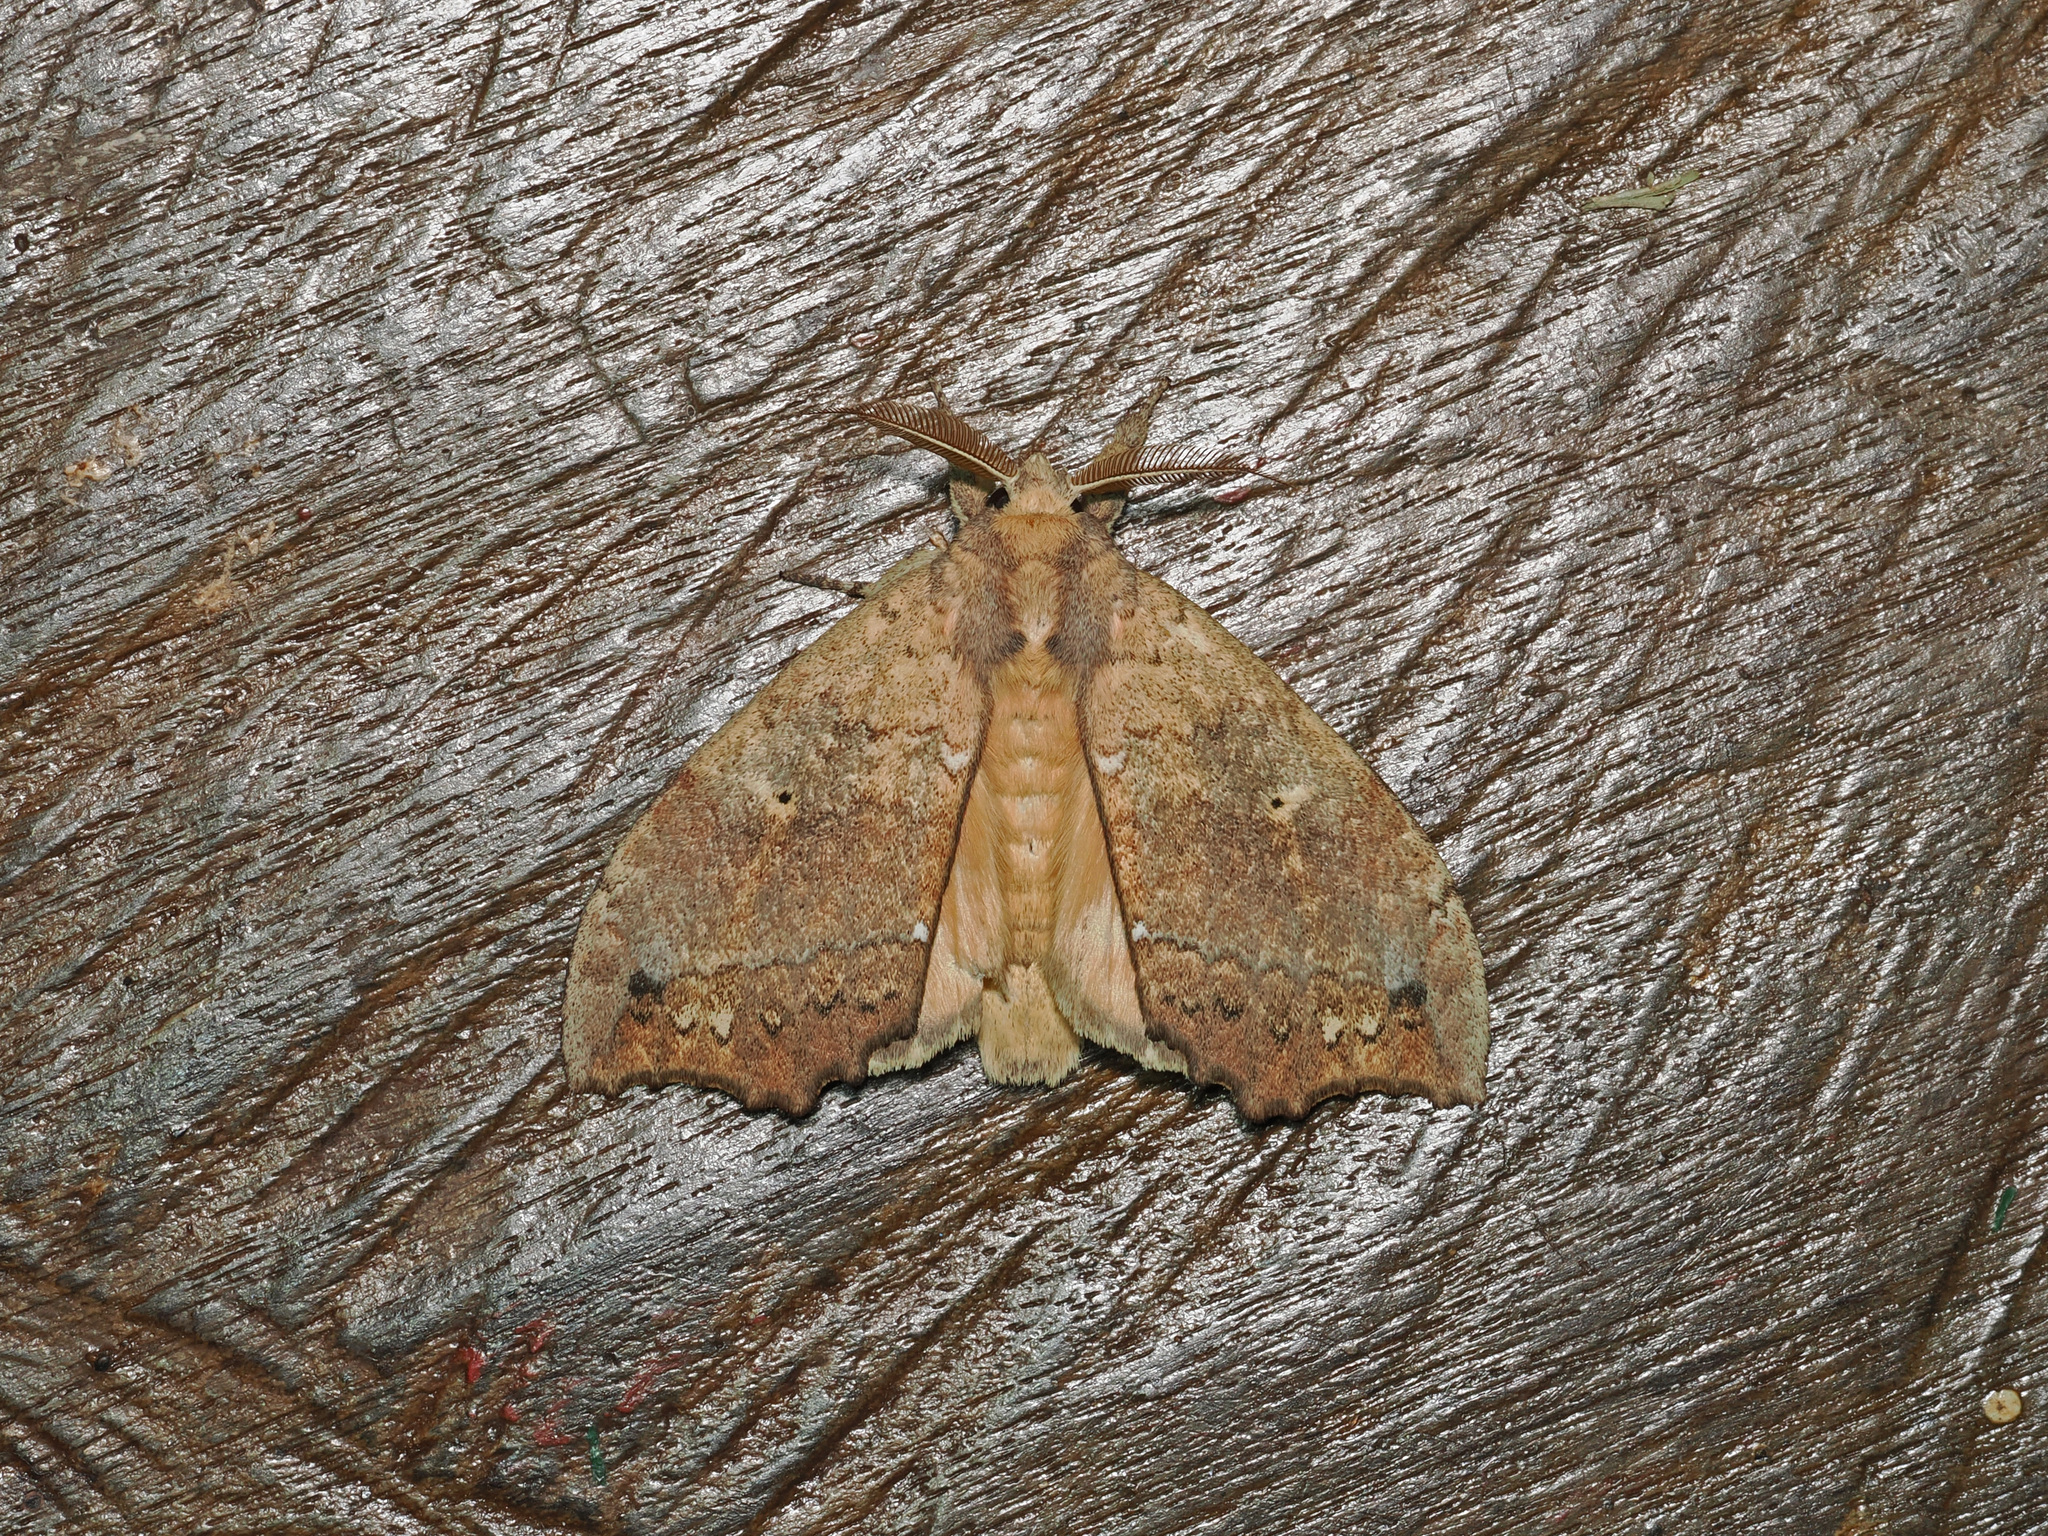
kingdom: Animalia
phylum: Arthropoda
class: Insecta
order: Lepidoptera
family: Notodontidae
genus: Gangarides
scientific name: Gangarides vardena
